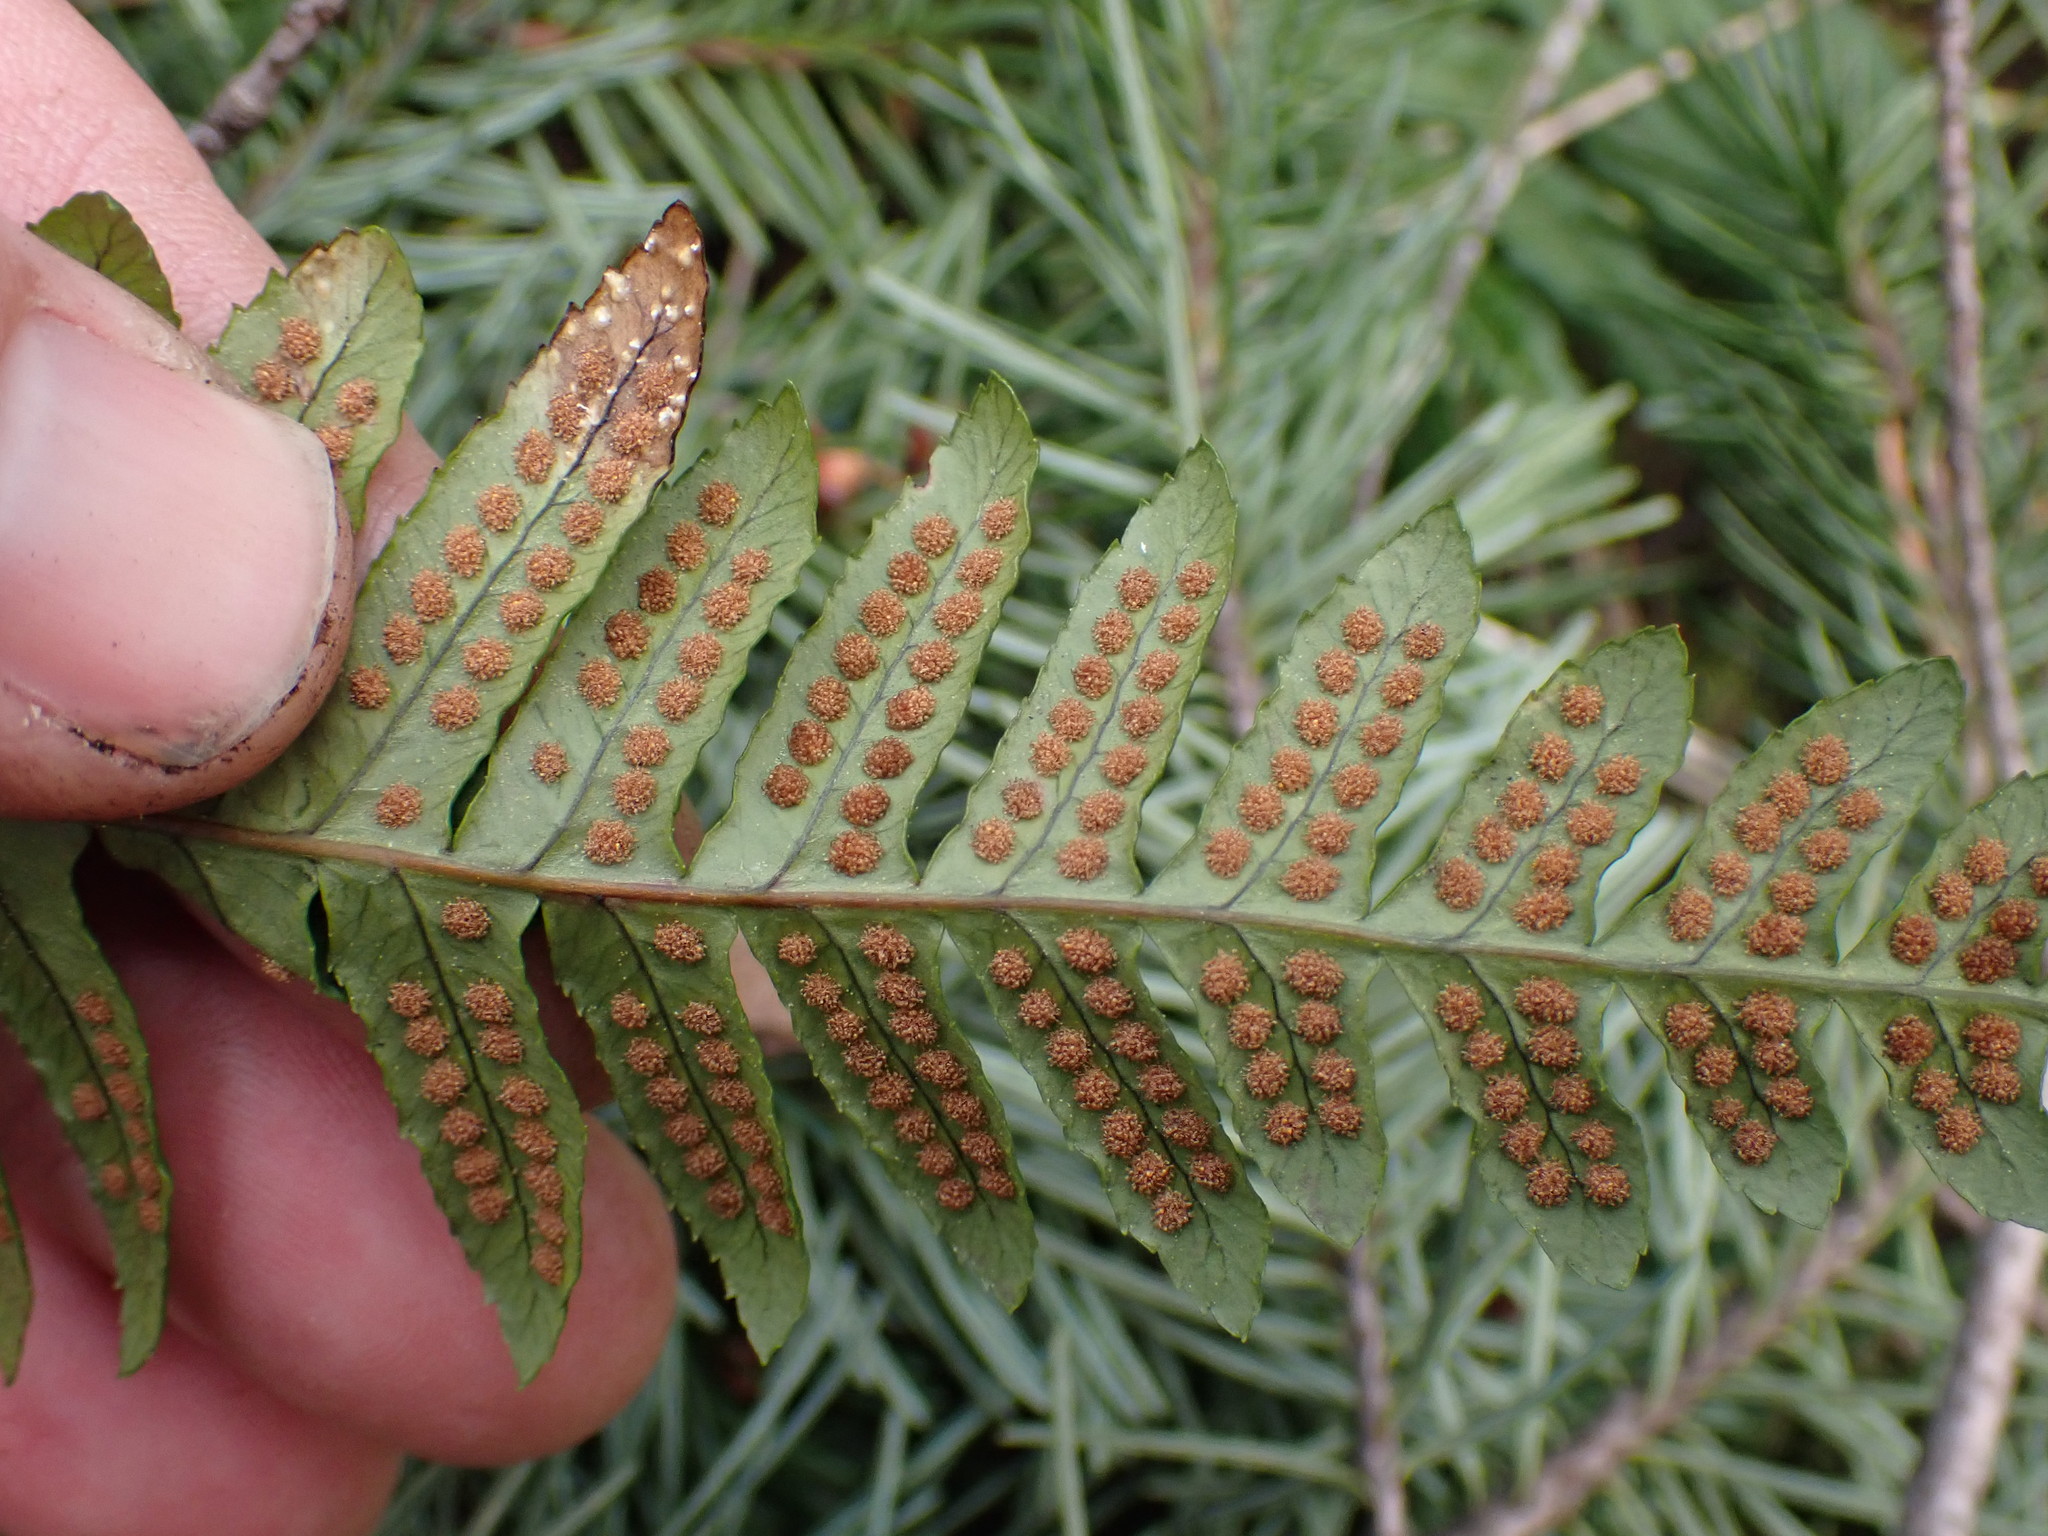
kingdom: Plantae
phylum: Tracheophyta
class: Polypodiopsida
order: Polypodiales
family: Polypodiaceae
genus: Polypodium
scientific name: Polypodium glycyrrhiza
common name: Licorice fern
